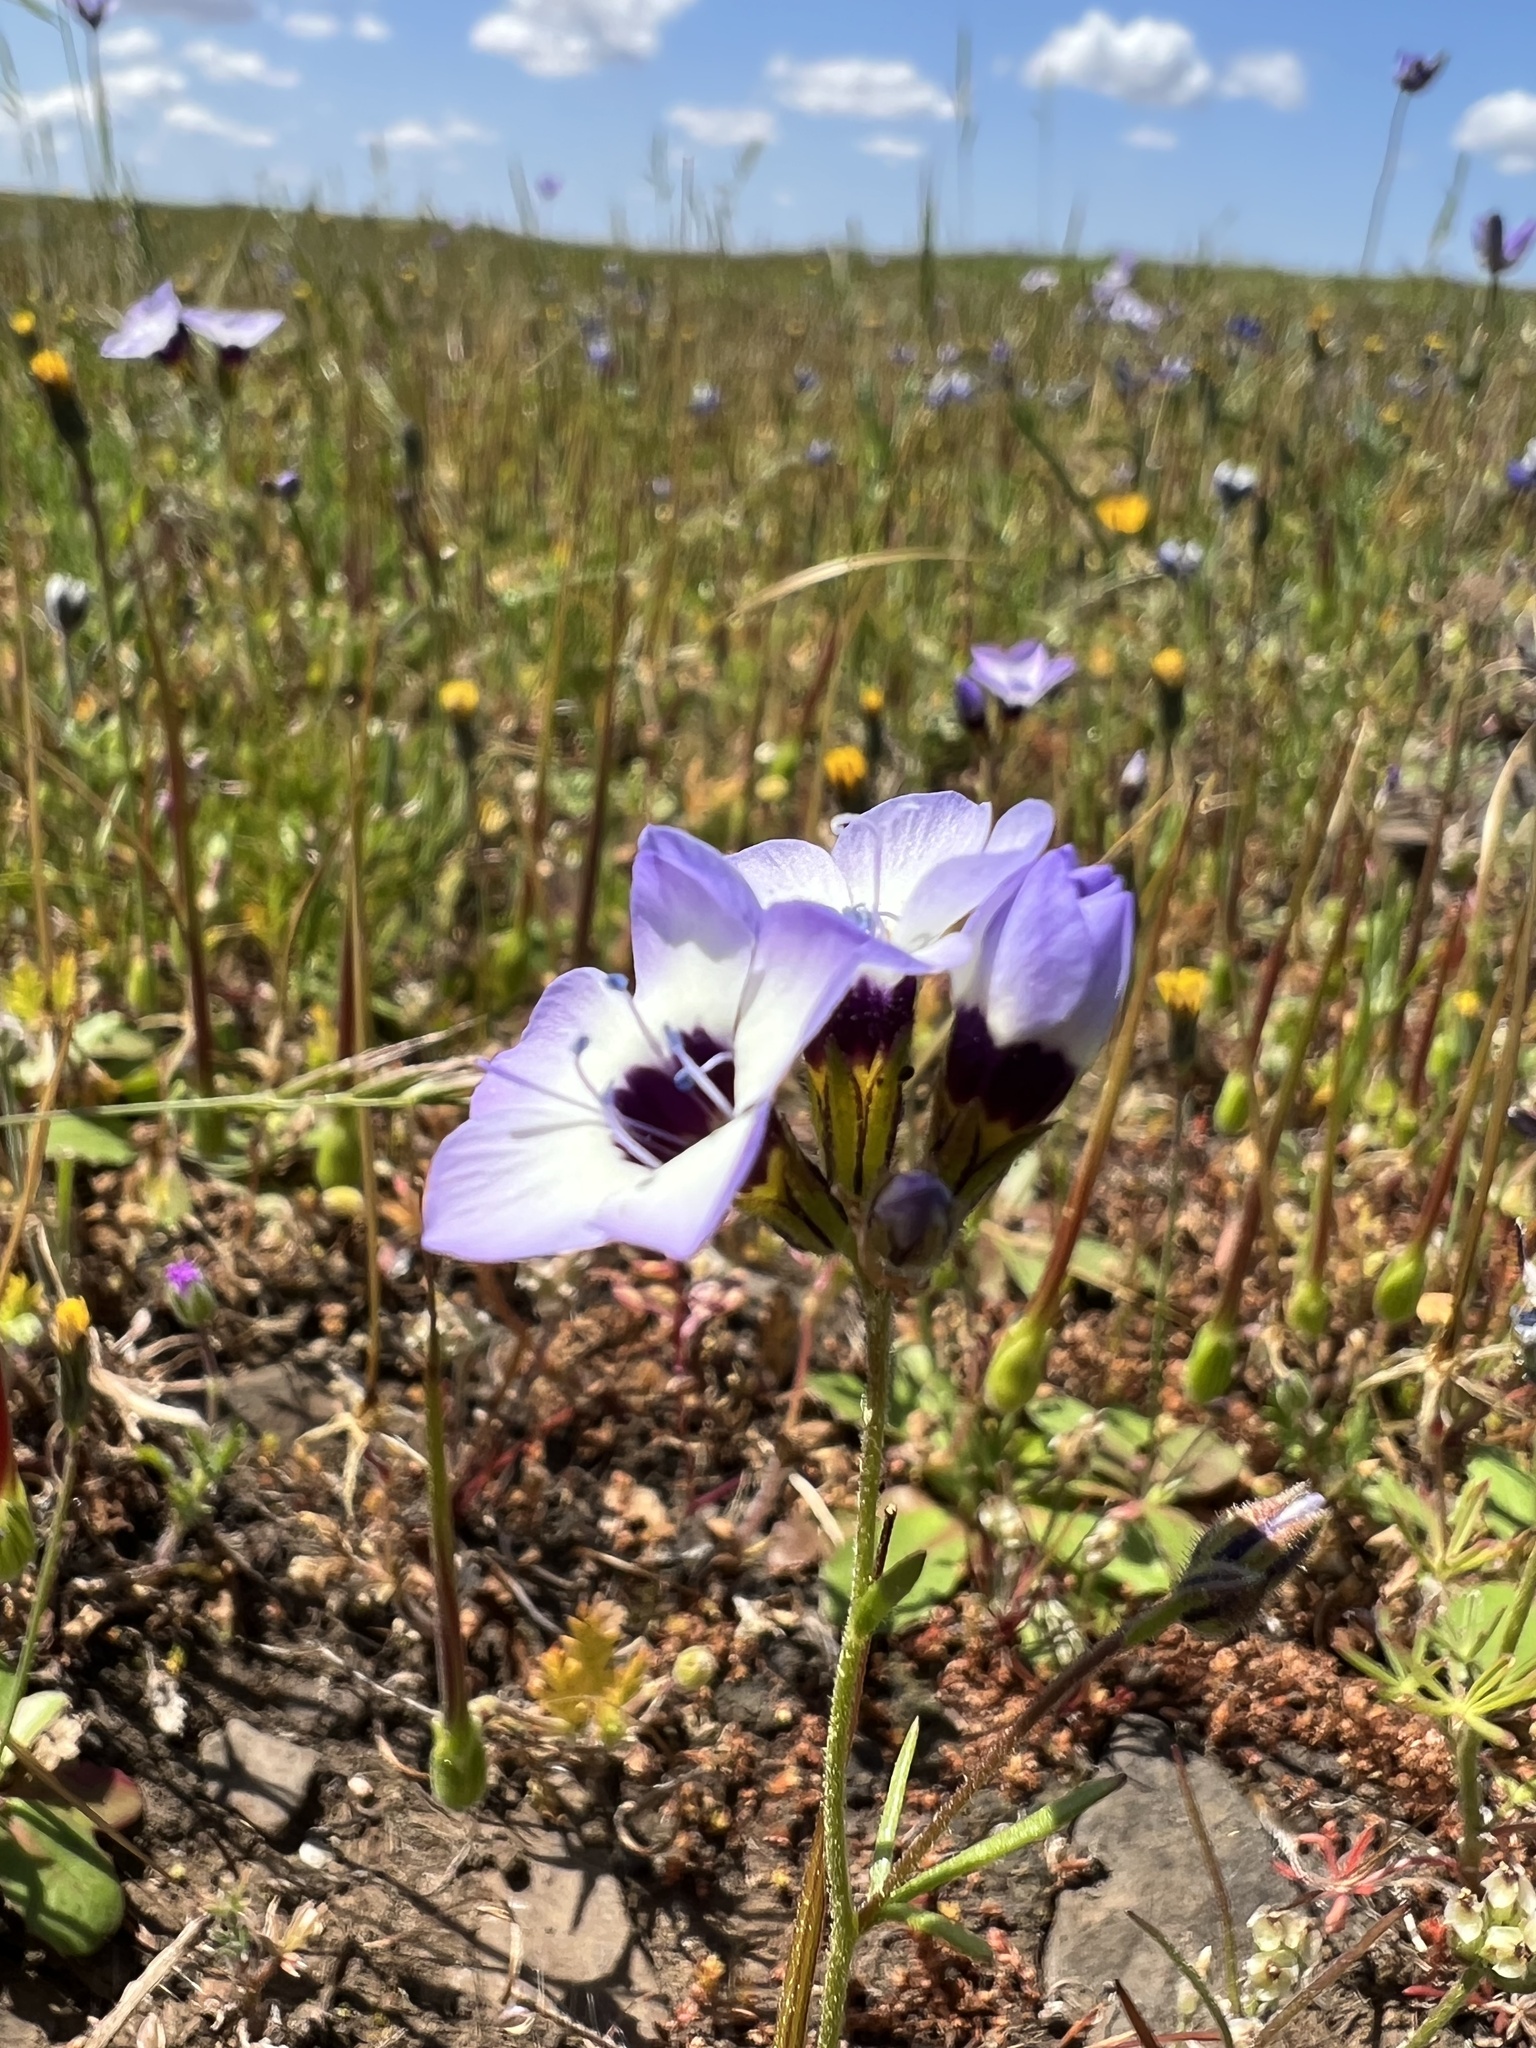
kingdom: Plantae
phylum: Tracheophyta
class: Magnoliopsida
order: Ericales
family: Polemoniaceae
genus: Gilia
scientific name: Gilia tricolor
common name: Bird's-eyes
